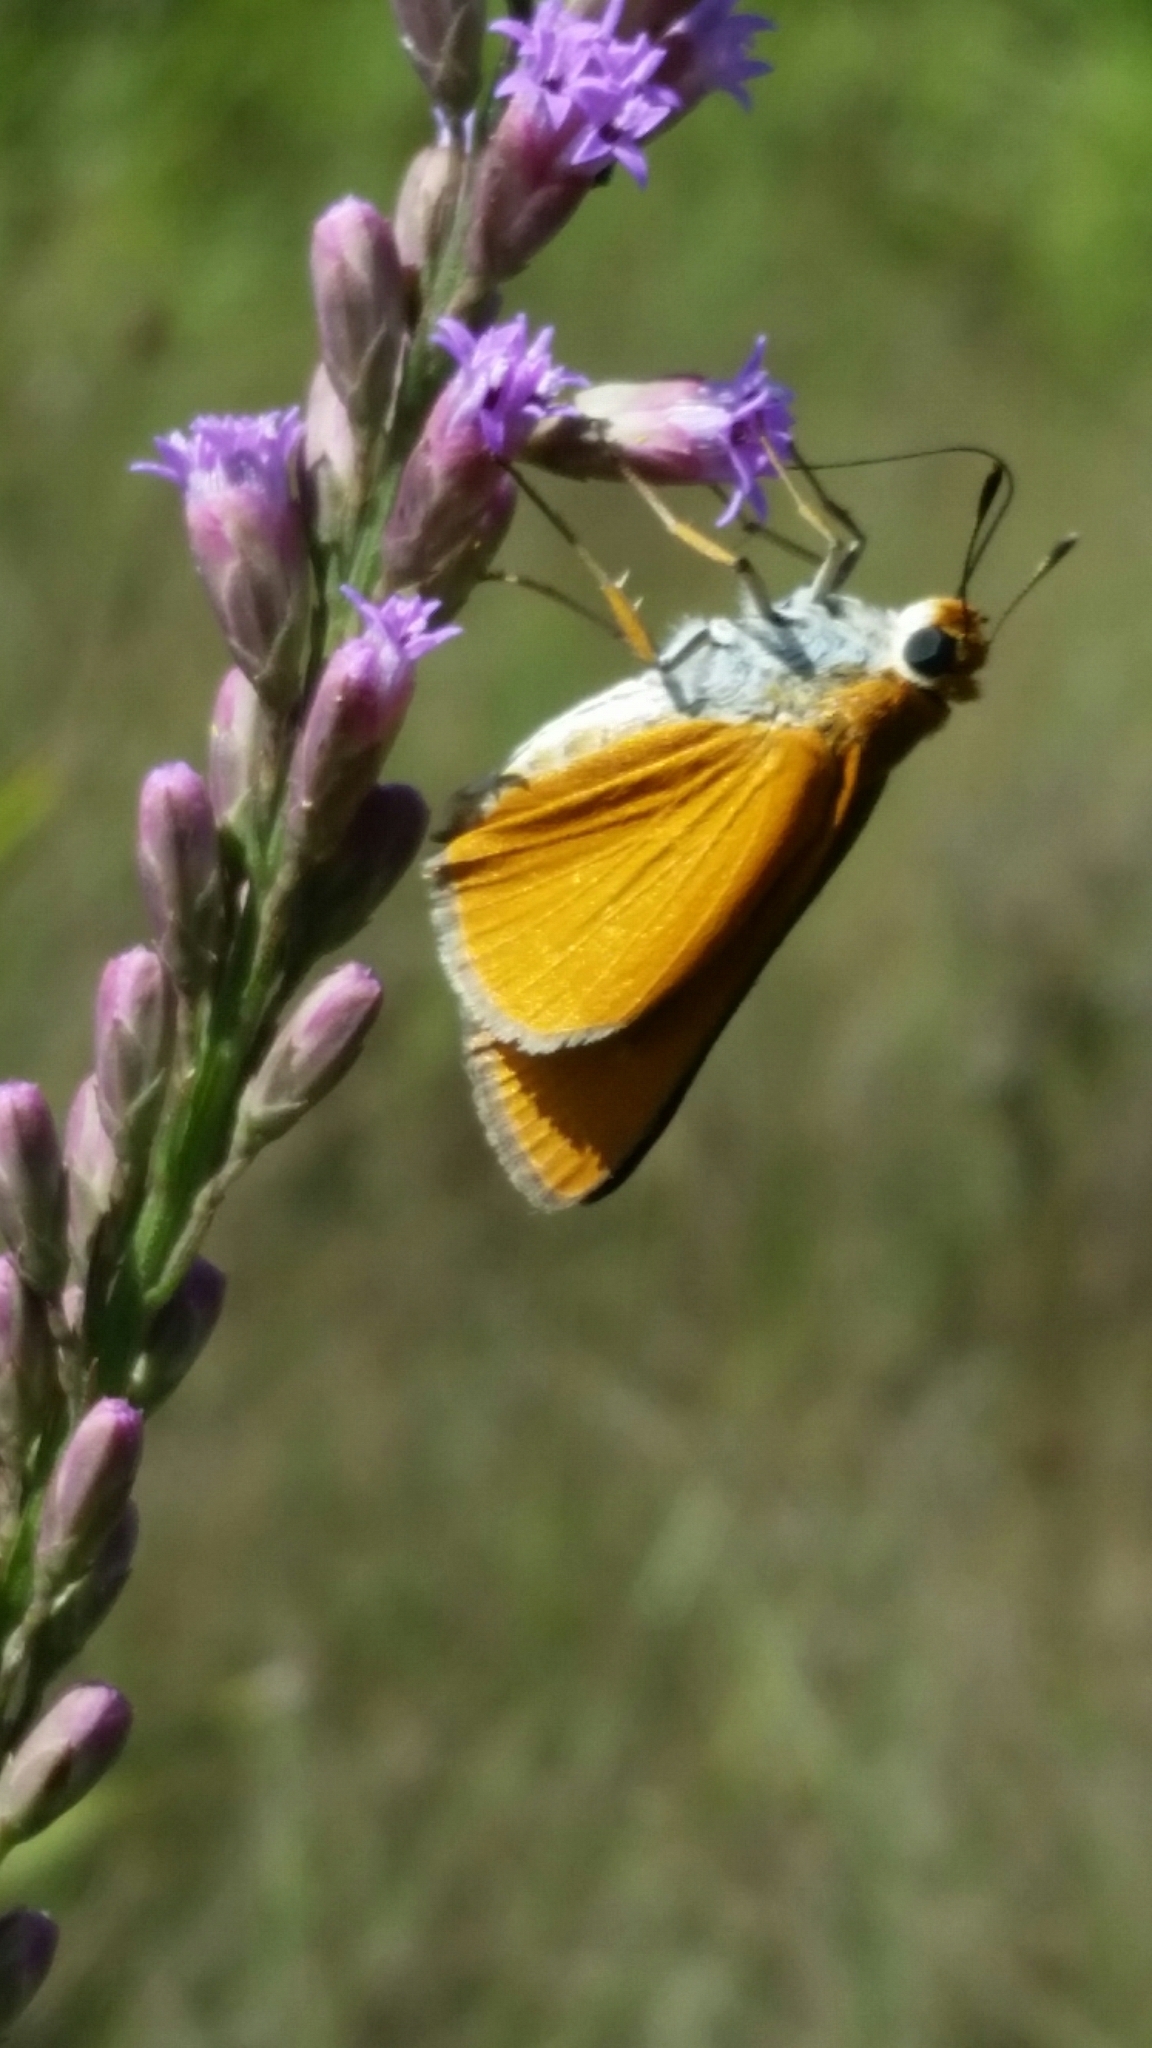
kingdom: Animalia
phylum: Arthropoda
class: Insecta
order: Lepidoptera
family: Hesperiidae
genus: Euphyes
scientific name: Euphyes arpa
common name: Palmetto skipper
